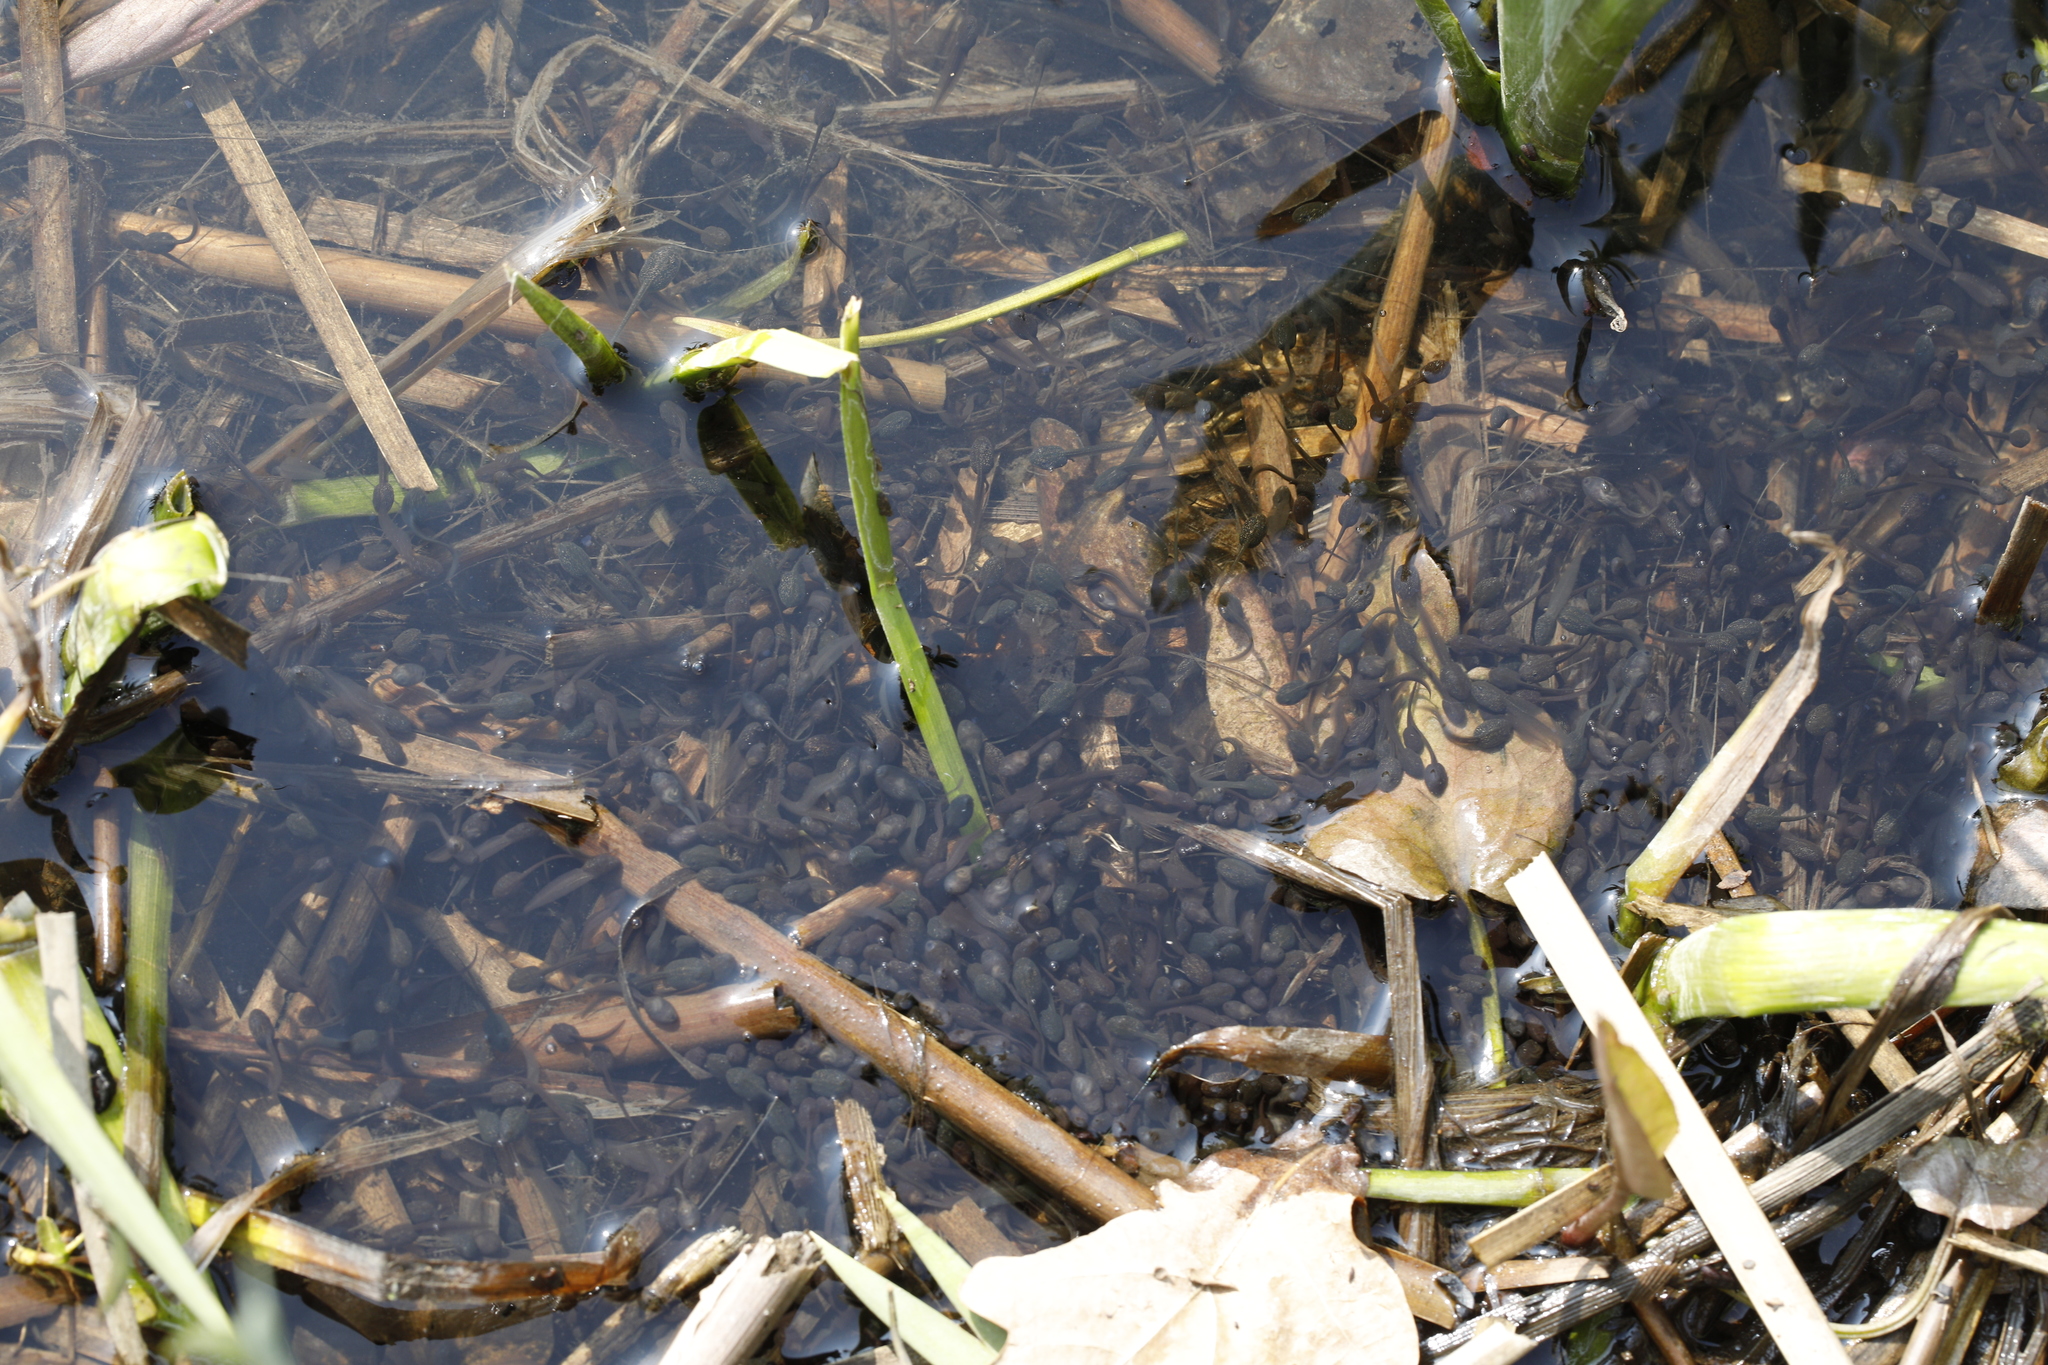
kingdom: Animalia
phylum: Chordata
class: Amphibia
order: Anura
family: Ranidae
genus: Rana
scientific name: Rana temporaria
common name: Common frog
